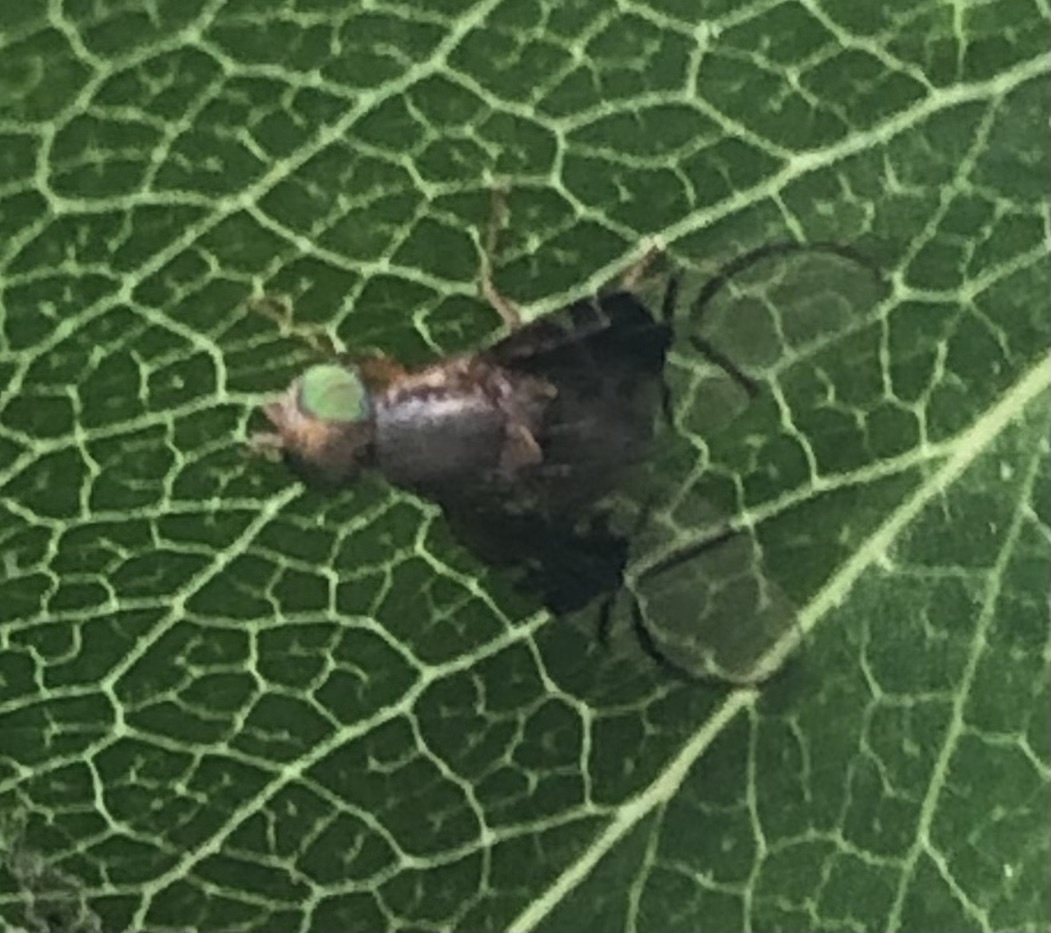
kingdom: Animalia
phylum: Arthropoda
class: Insecta
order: Diptera
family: Tephritidae
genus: Anomoia
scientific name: Anomoia purmunda
